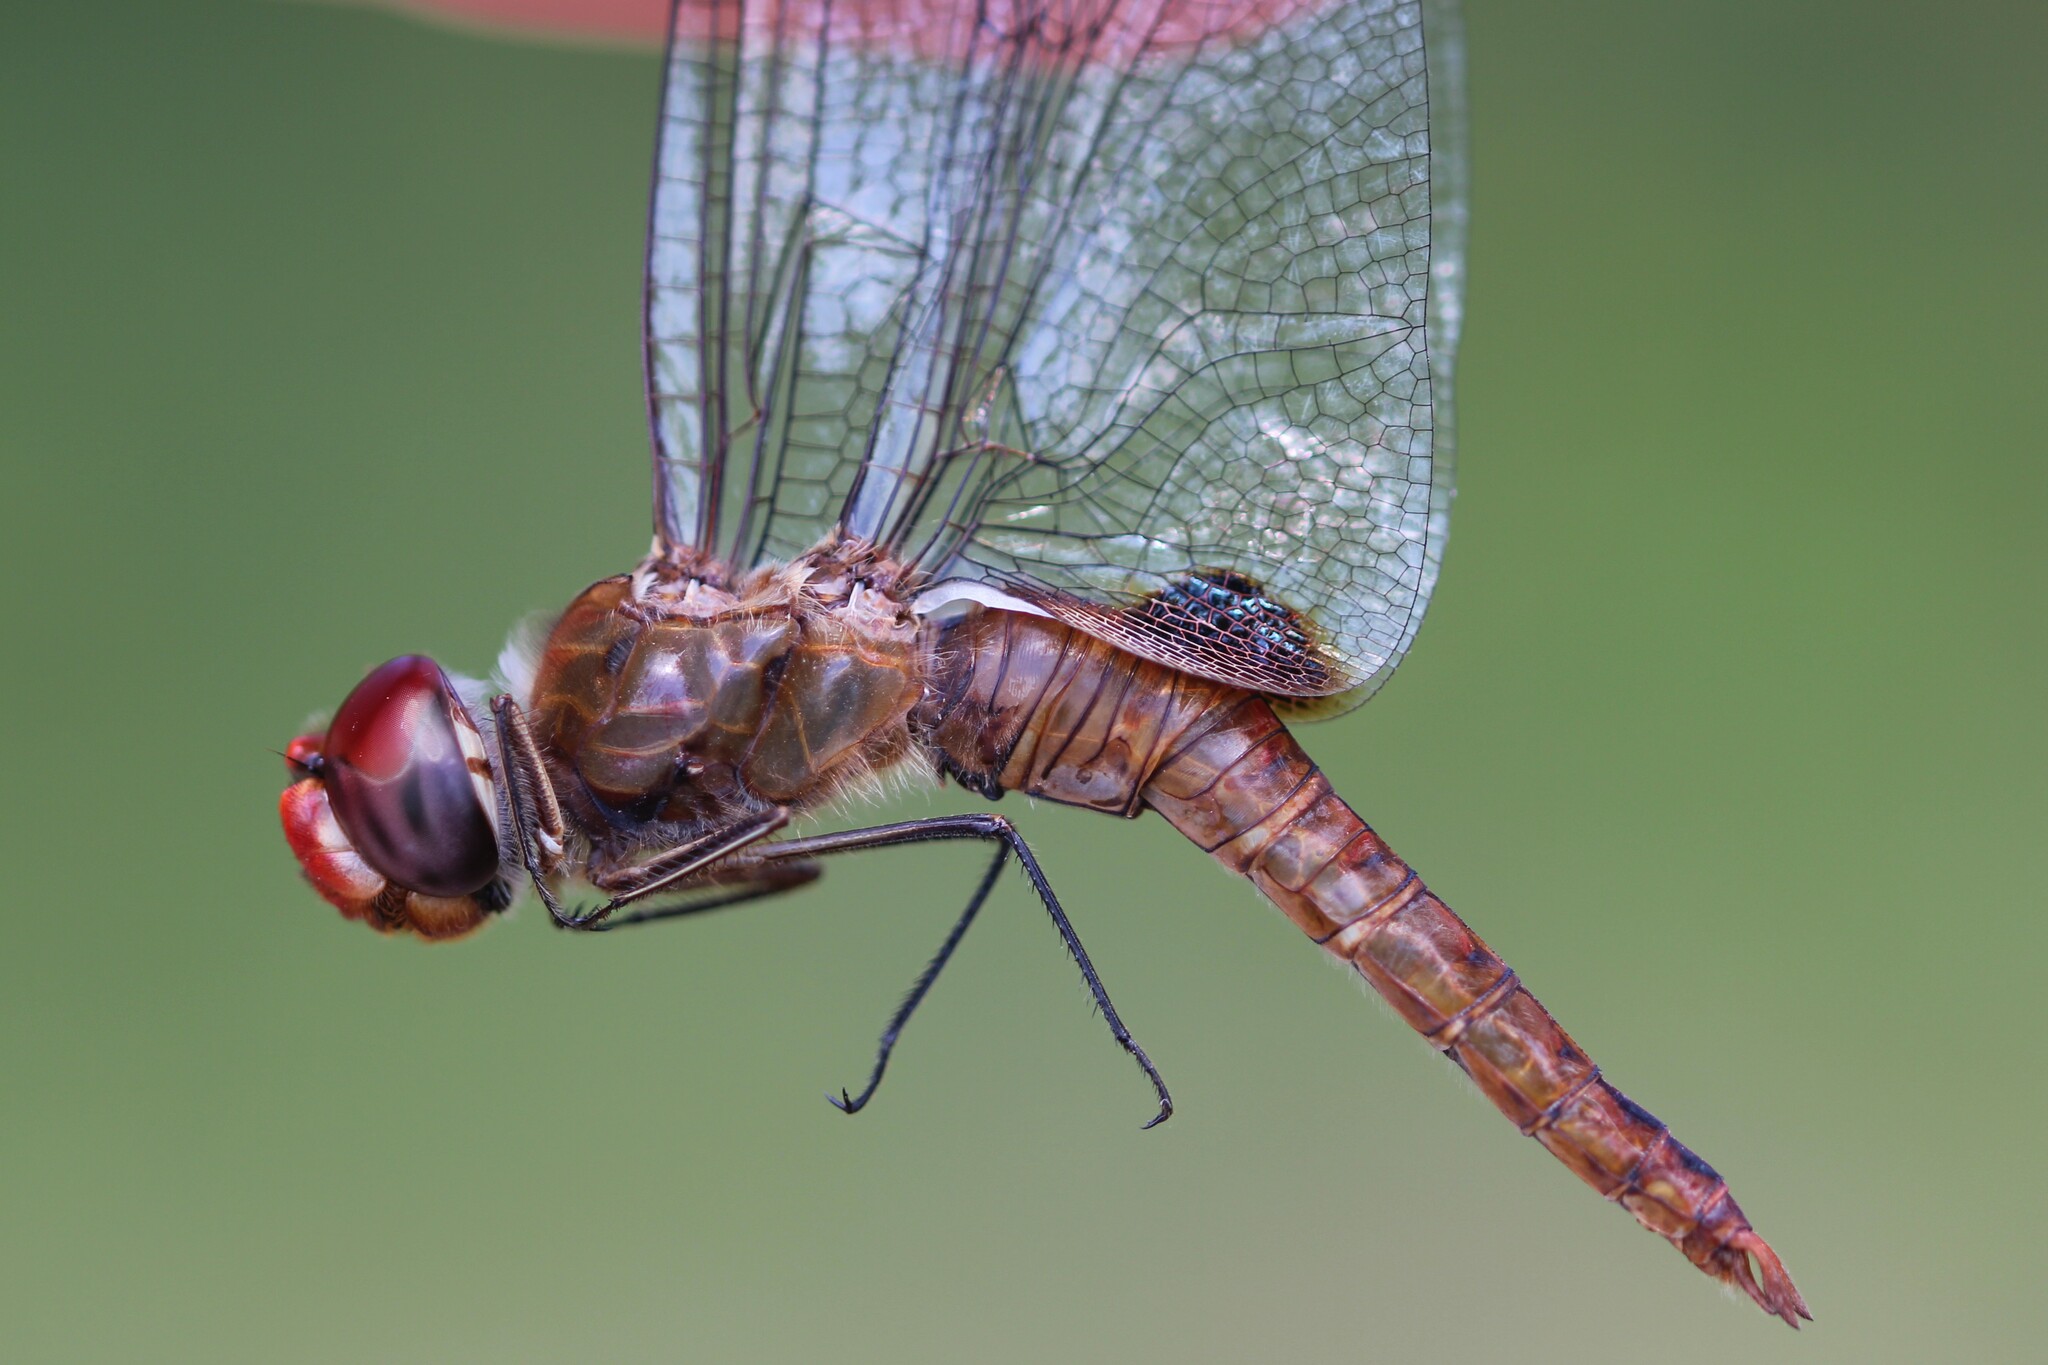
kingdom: Animalia
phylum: Arthropoda
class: Insecta
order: Odonata
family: Libellulidae
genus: Pantala
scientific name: Pantala hymenaea
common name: Spot-winged glider
